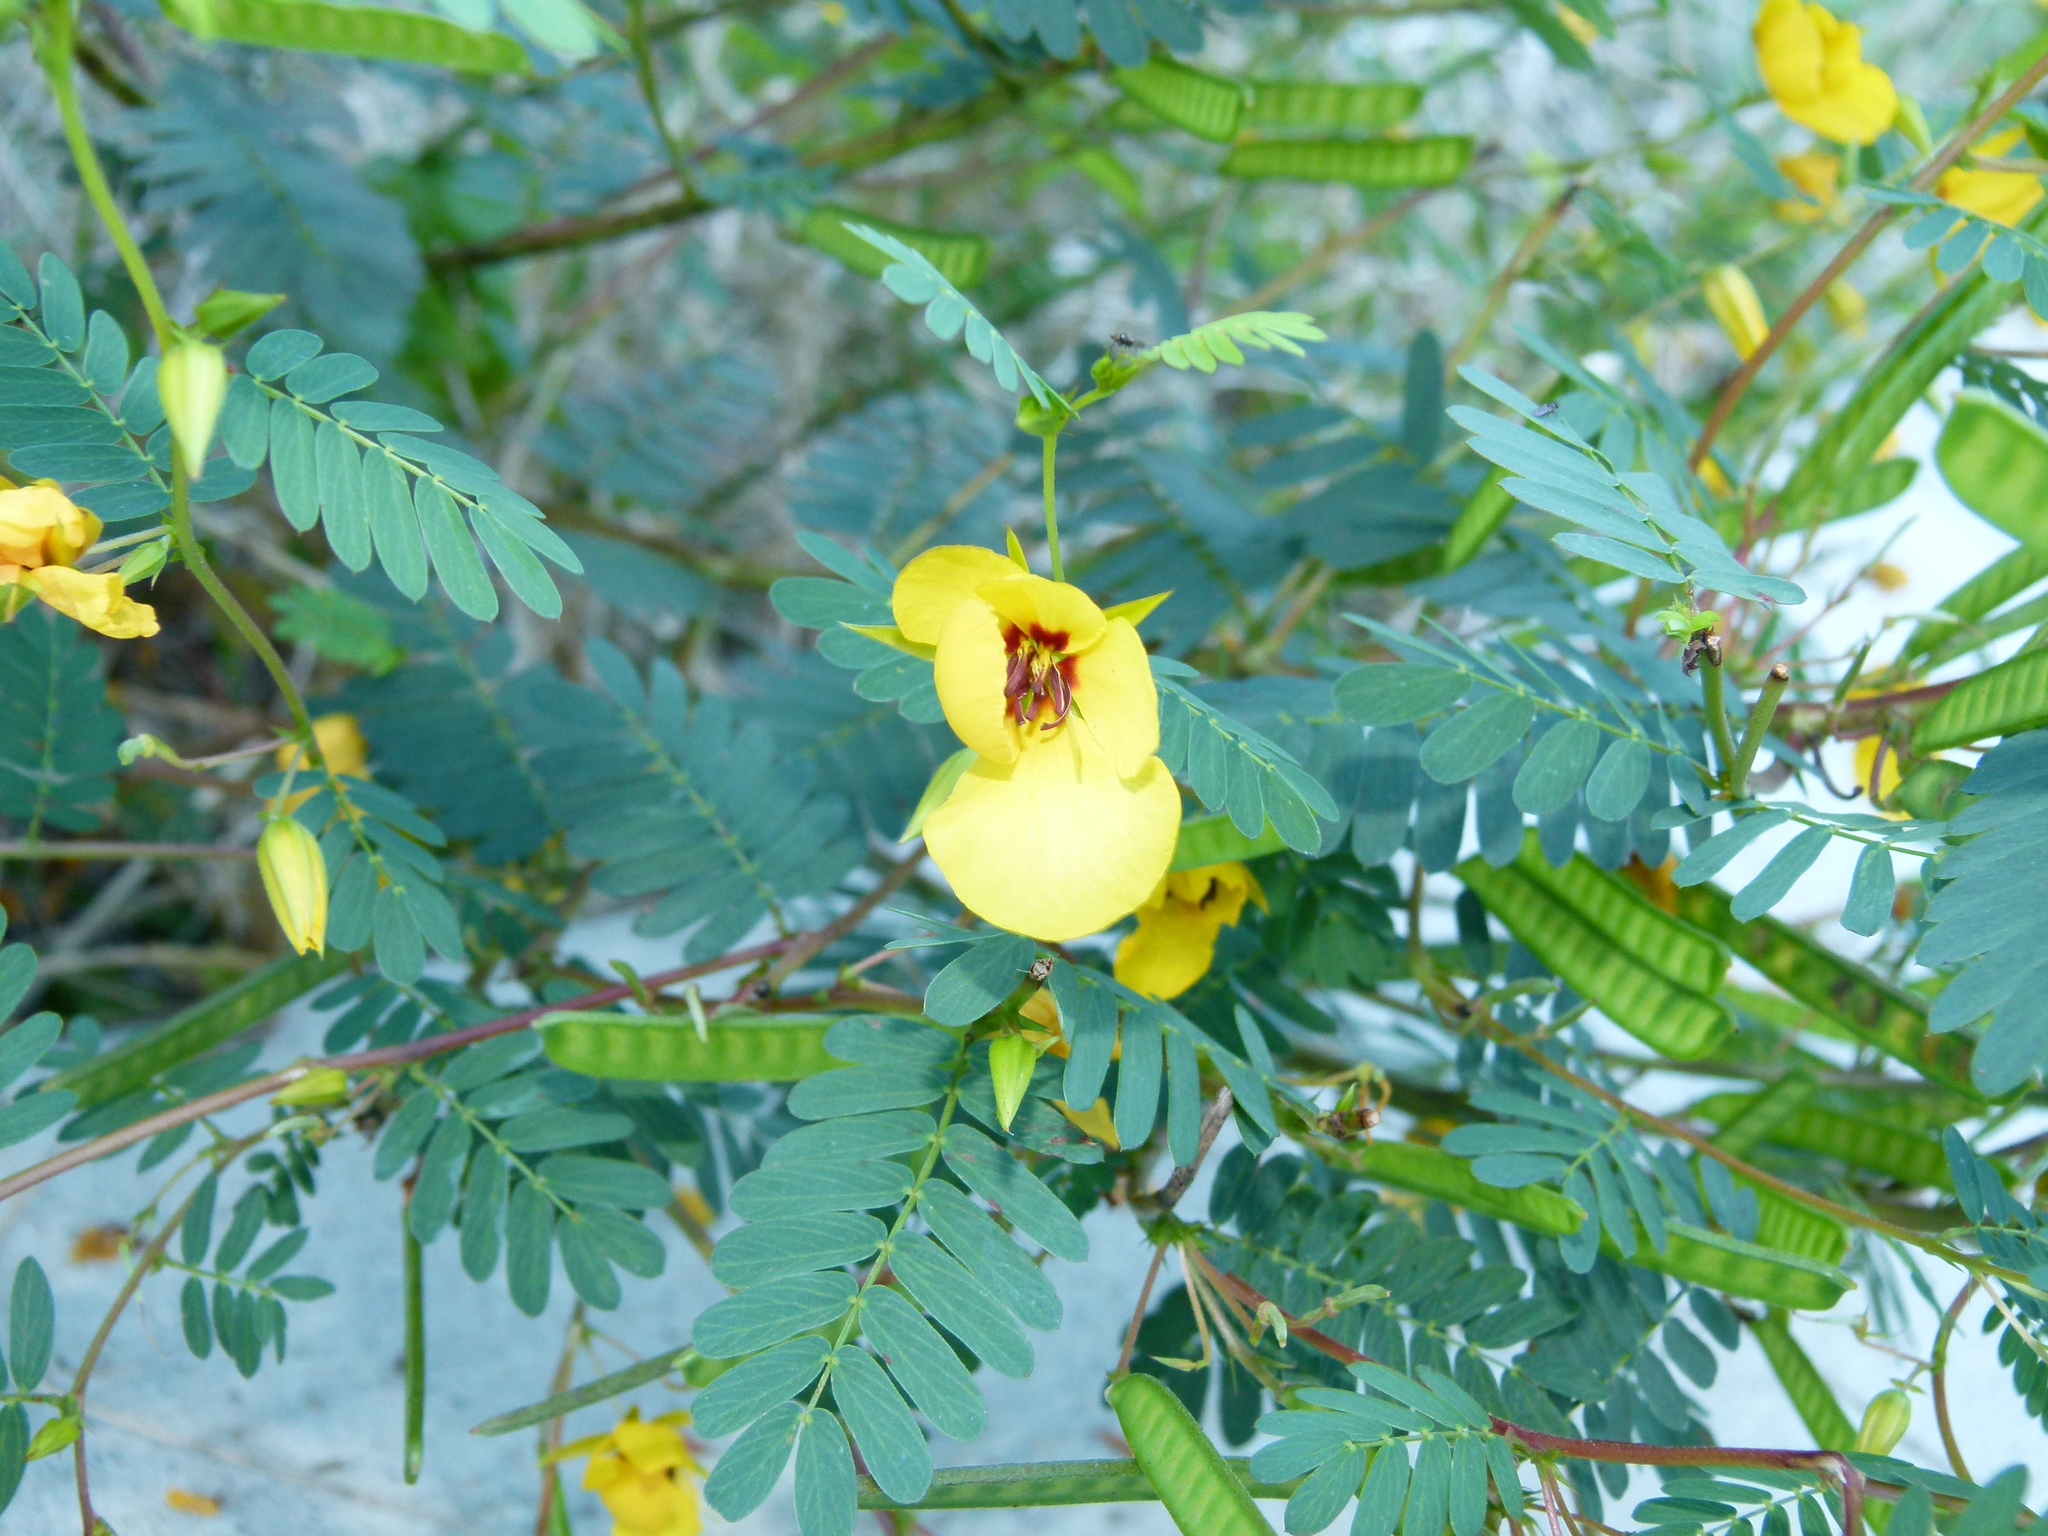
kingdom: Plantae
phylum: Tracheophyta
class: Magnoliopsida
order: Fabales
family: Fabaceae
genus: Chamaecrista
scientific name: Chamaecrista fasciculata
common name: Golden cassia
